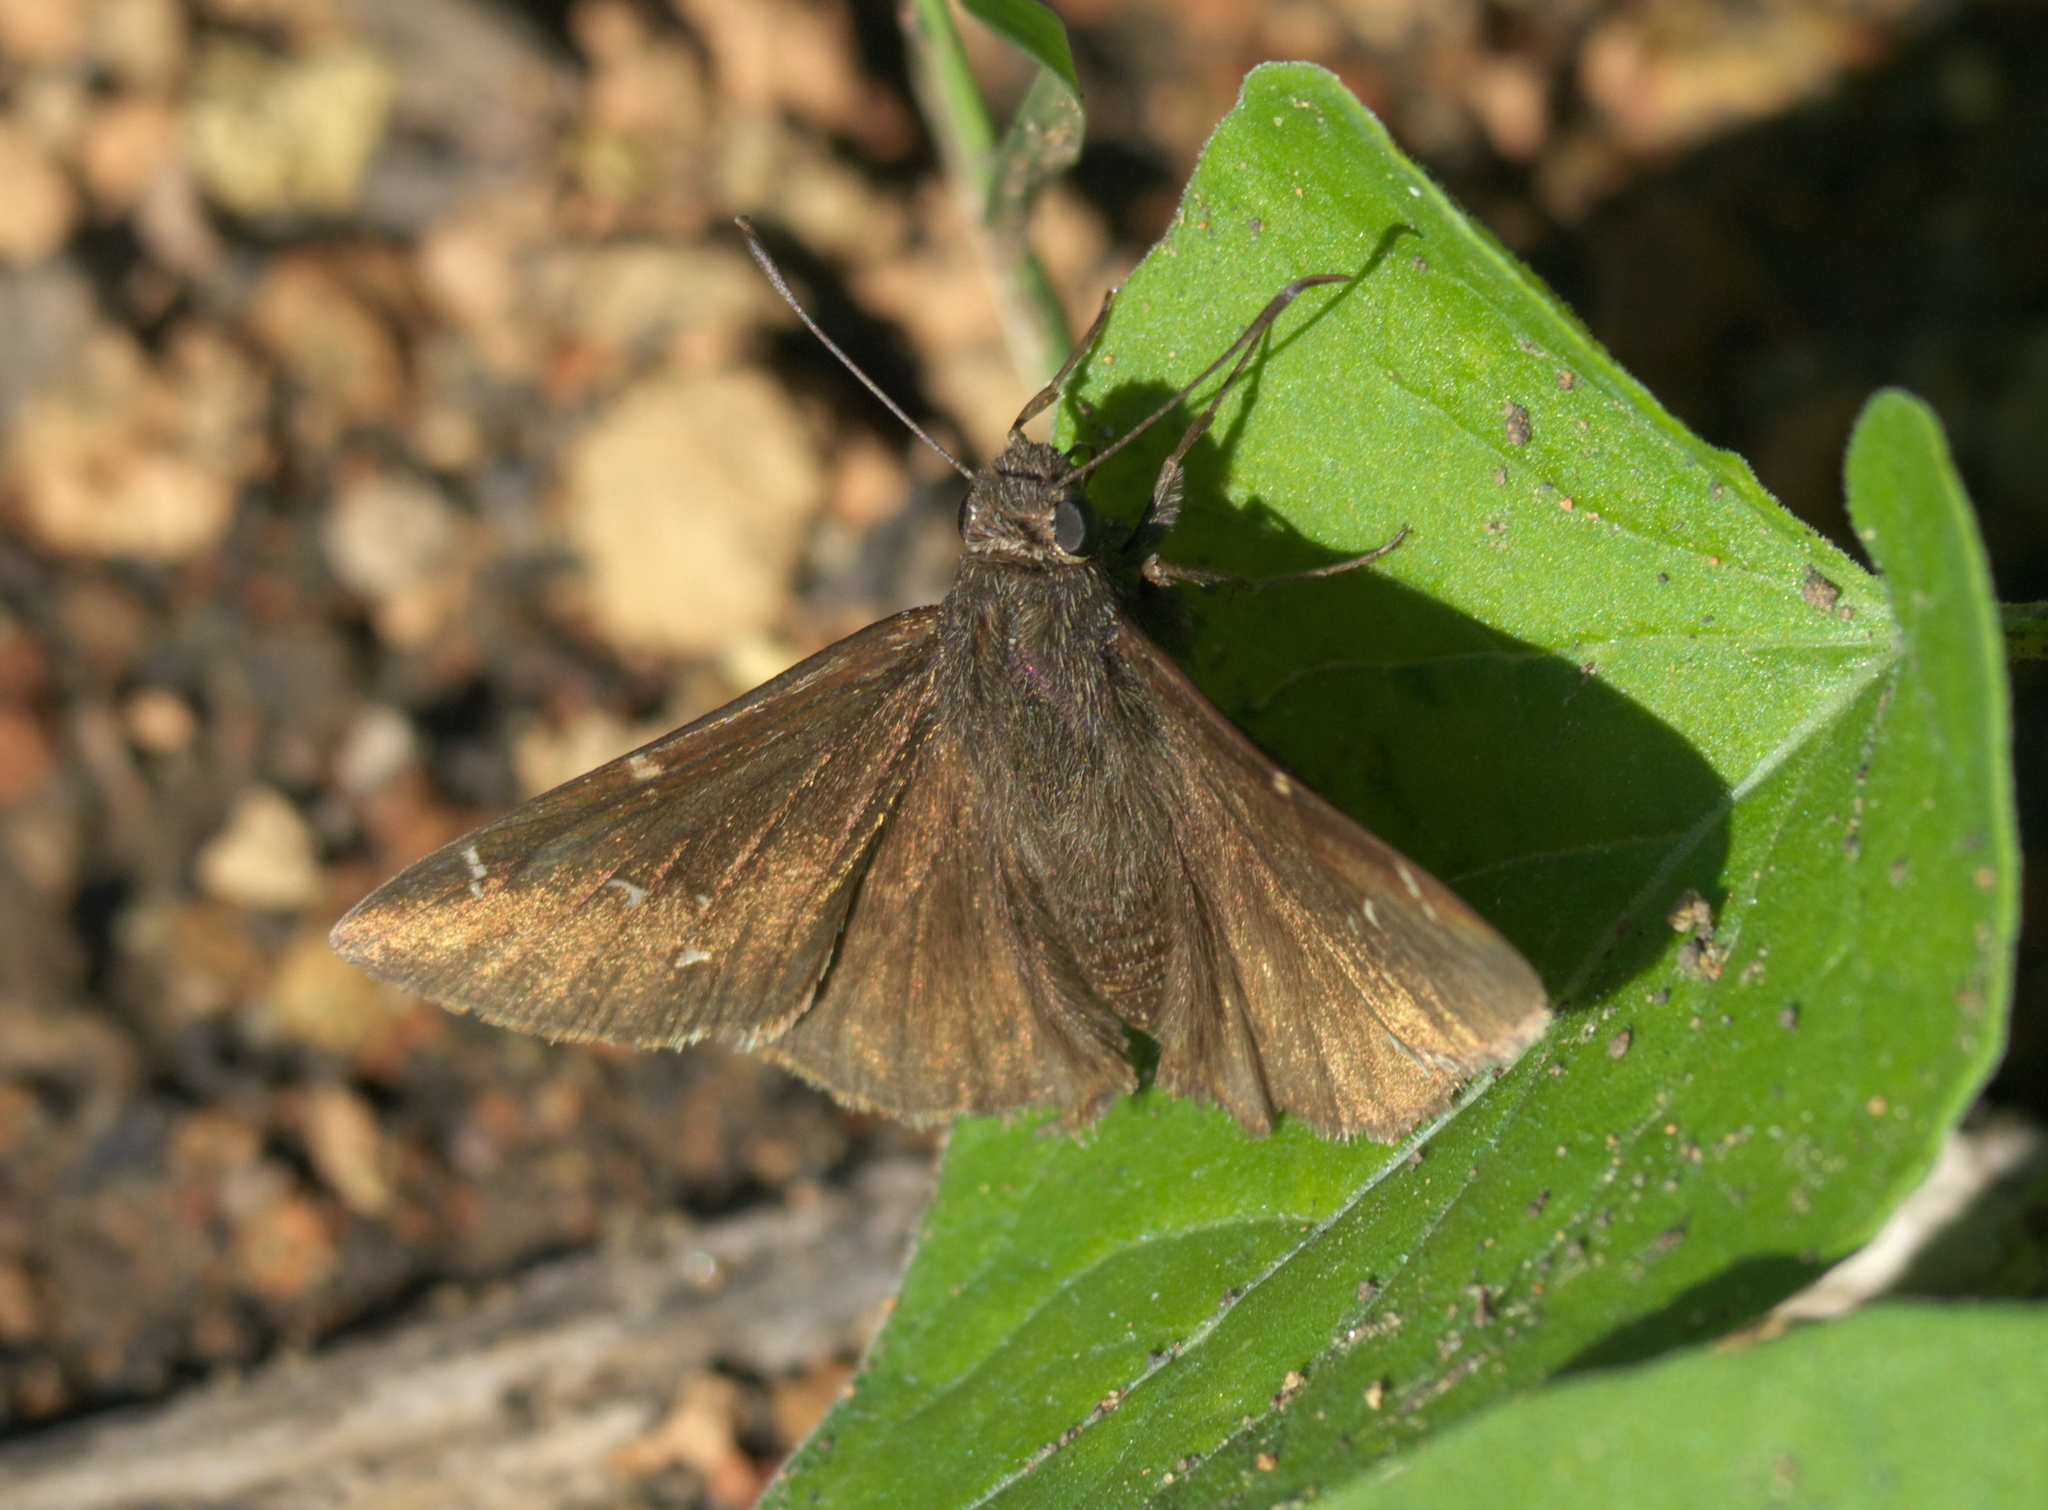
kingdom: Animalia
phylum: Arthropoda
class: Insecta
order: Lepidoptera
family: Hesperiidae
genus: Thorybes
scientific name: Thorybes pylades
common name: Northern cloudywing
